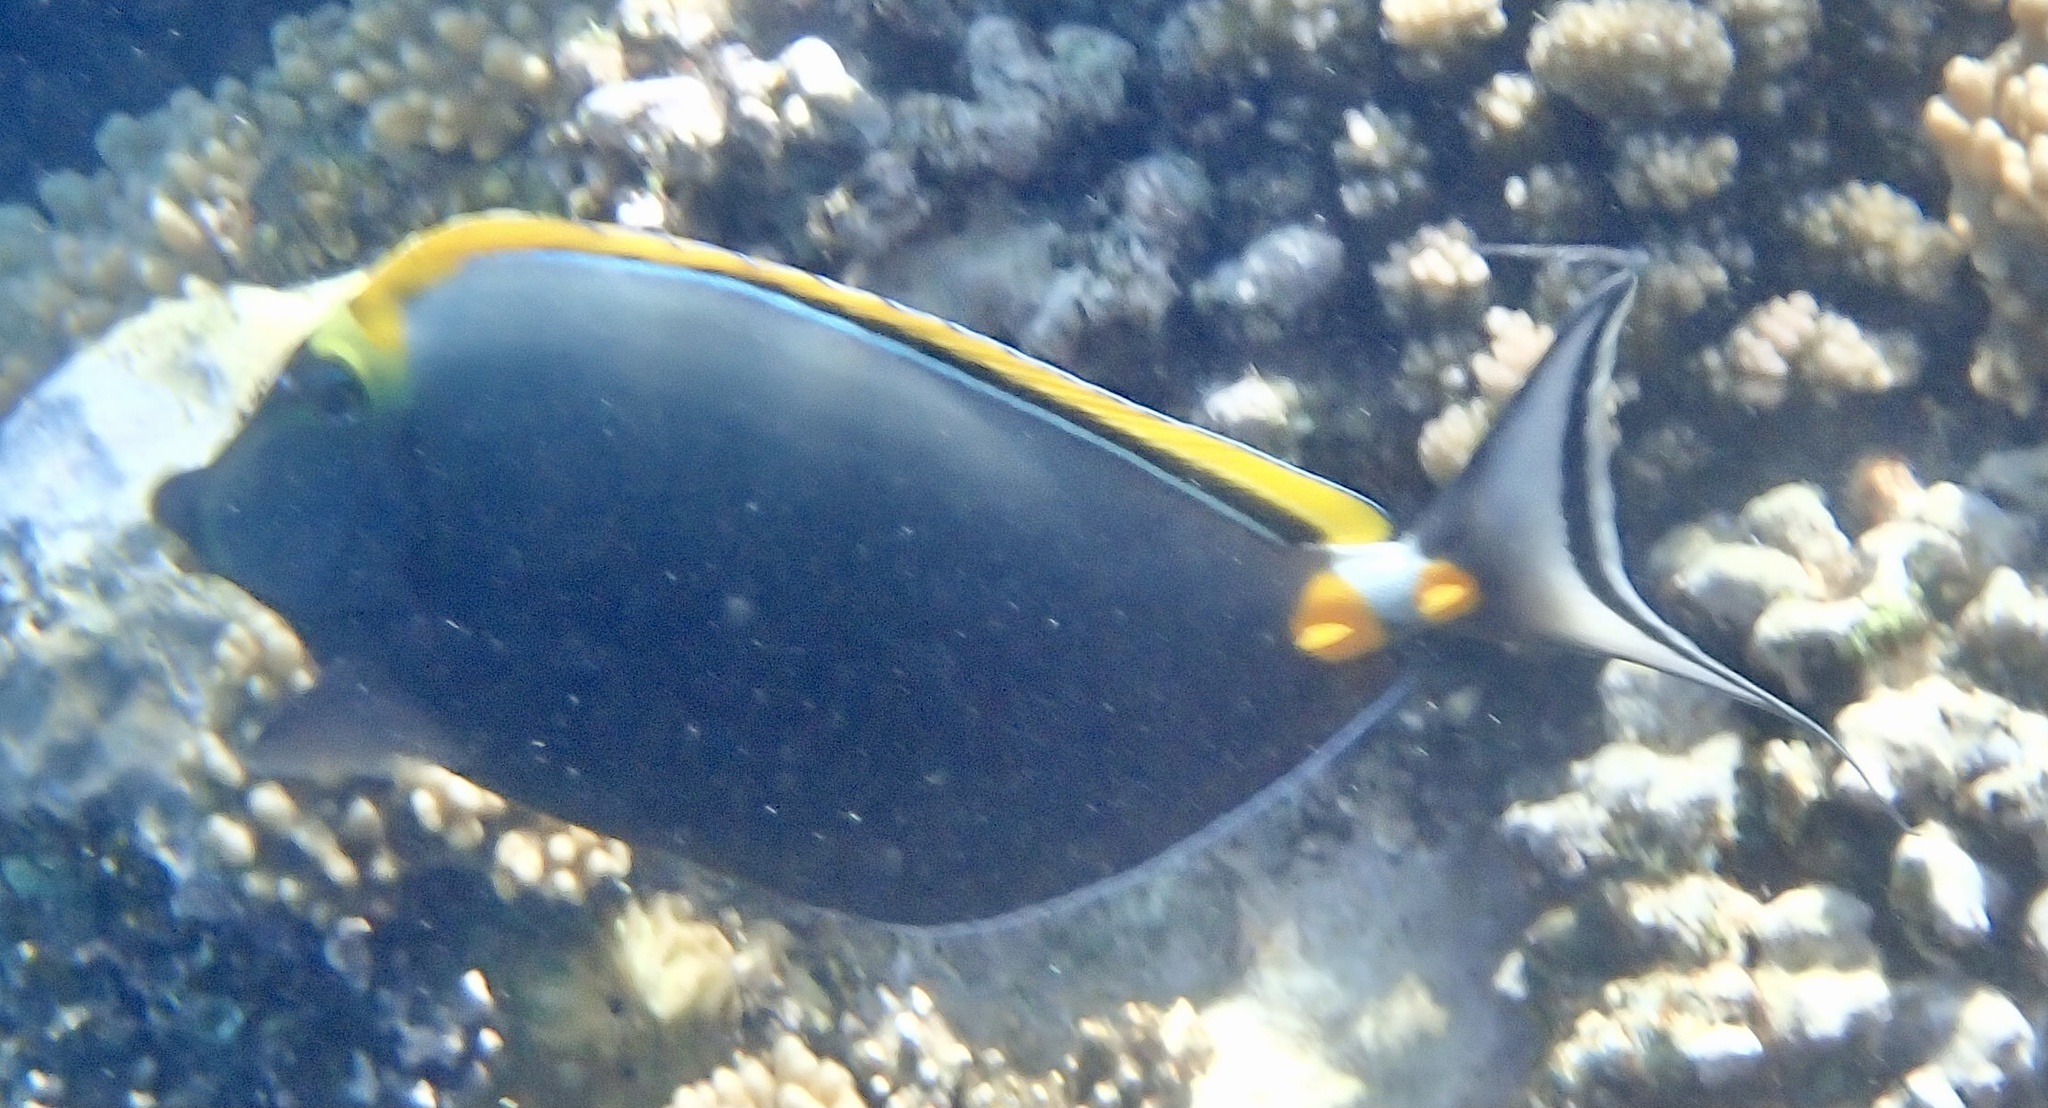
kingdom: Animalia
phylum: Chordata
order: Perciformes
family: Acanthuridae
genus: Naso
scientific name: Naso elegans
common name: Orangespine unicornfish
